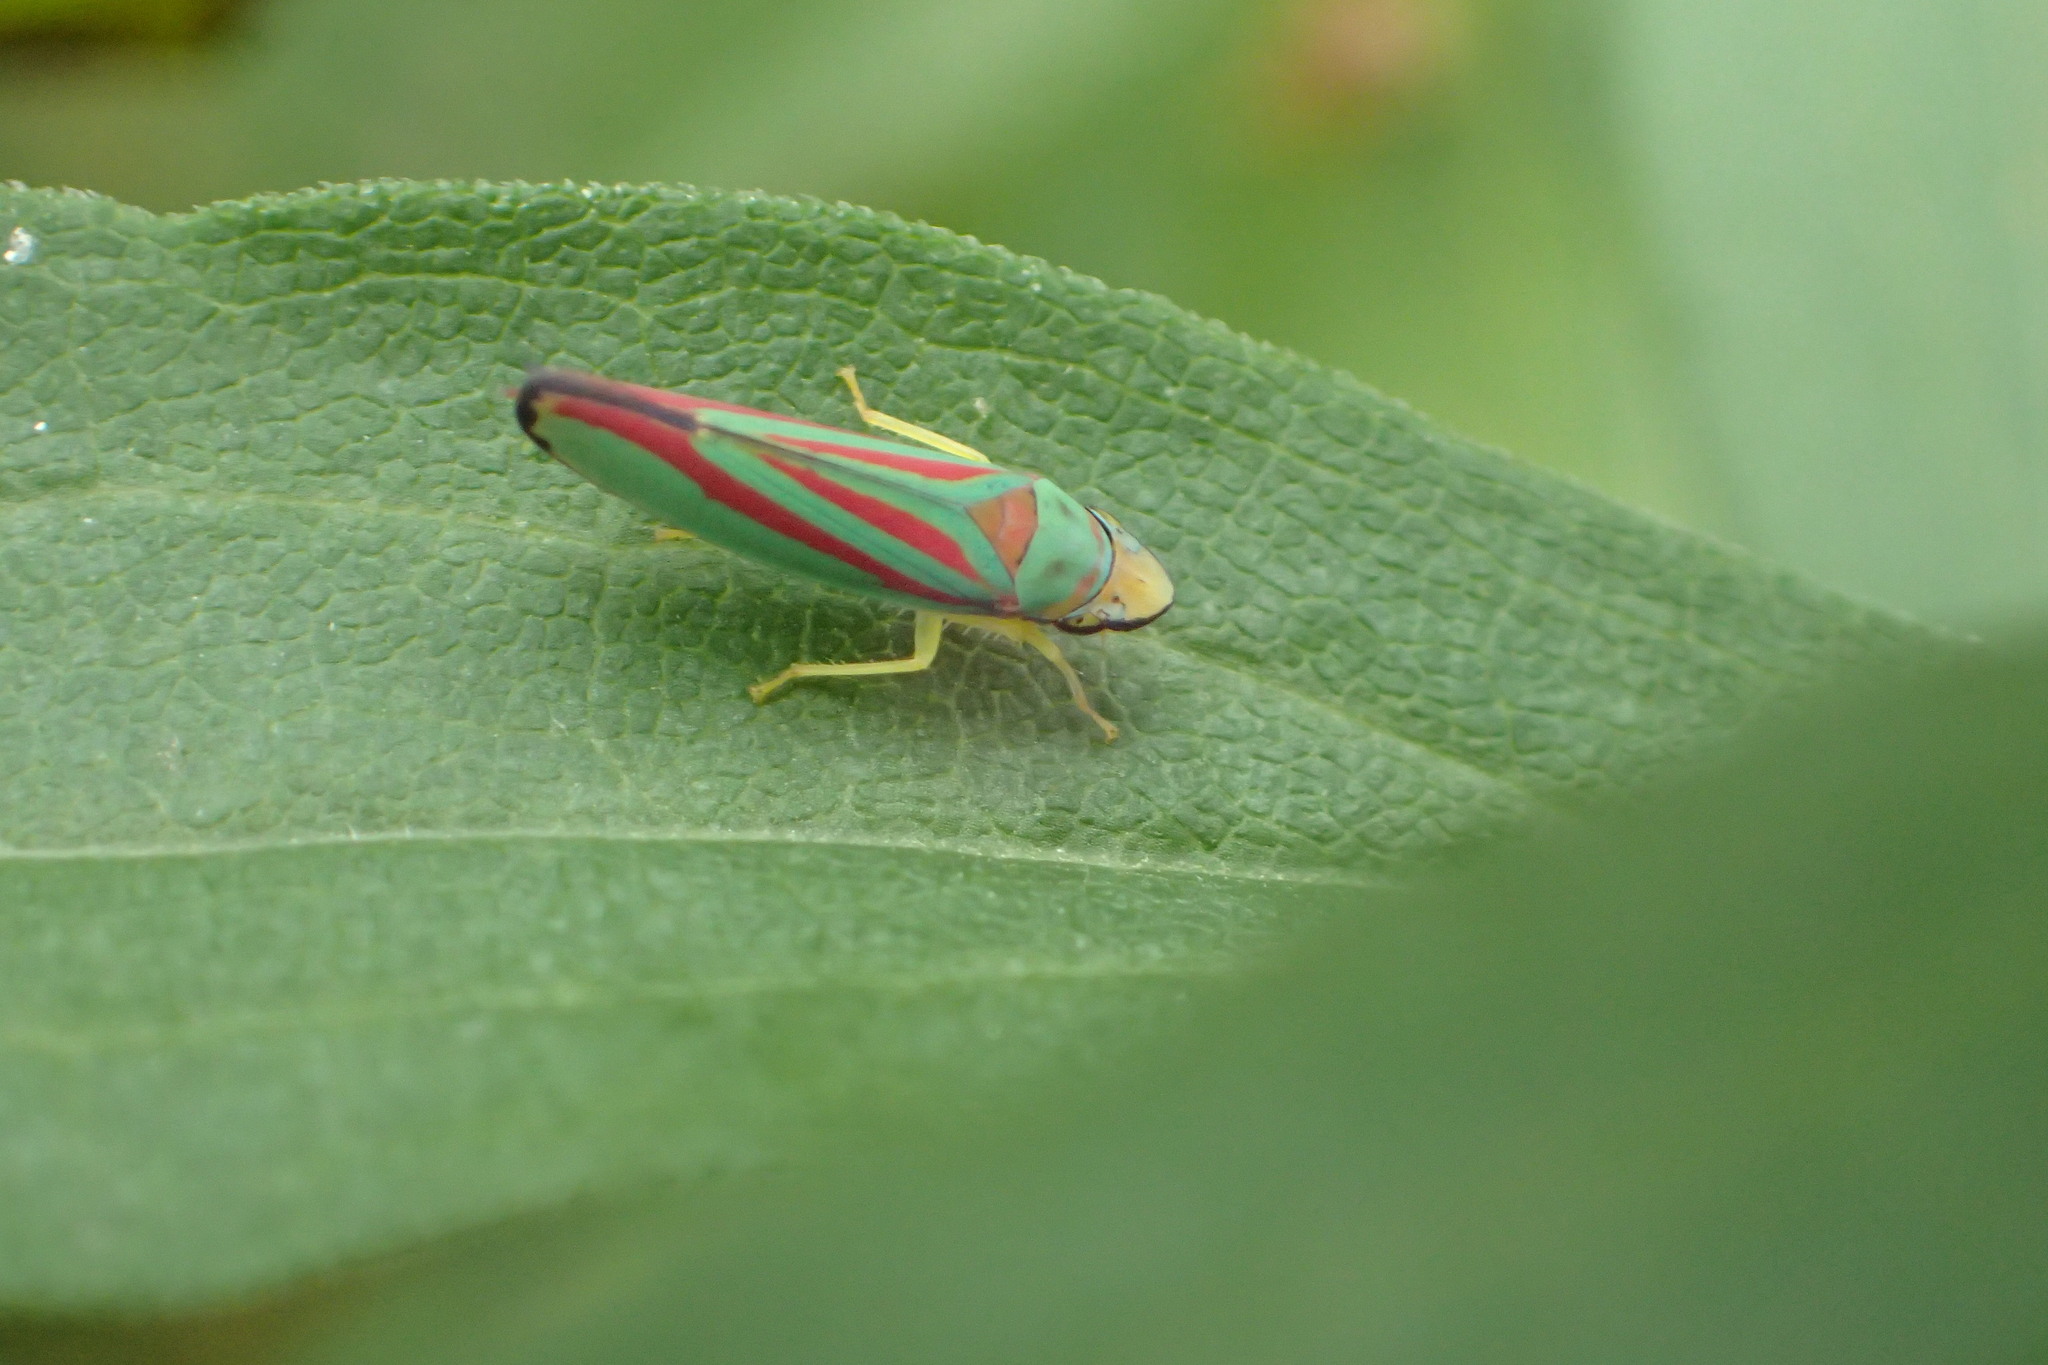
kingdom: Animalia
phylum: Arthropoda
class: Insecta
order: Hemiptera
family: Cicadellidae
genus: Graphocephala
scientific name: Graphocephala coccinea
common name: Candy-striped leafhopper
